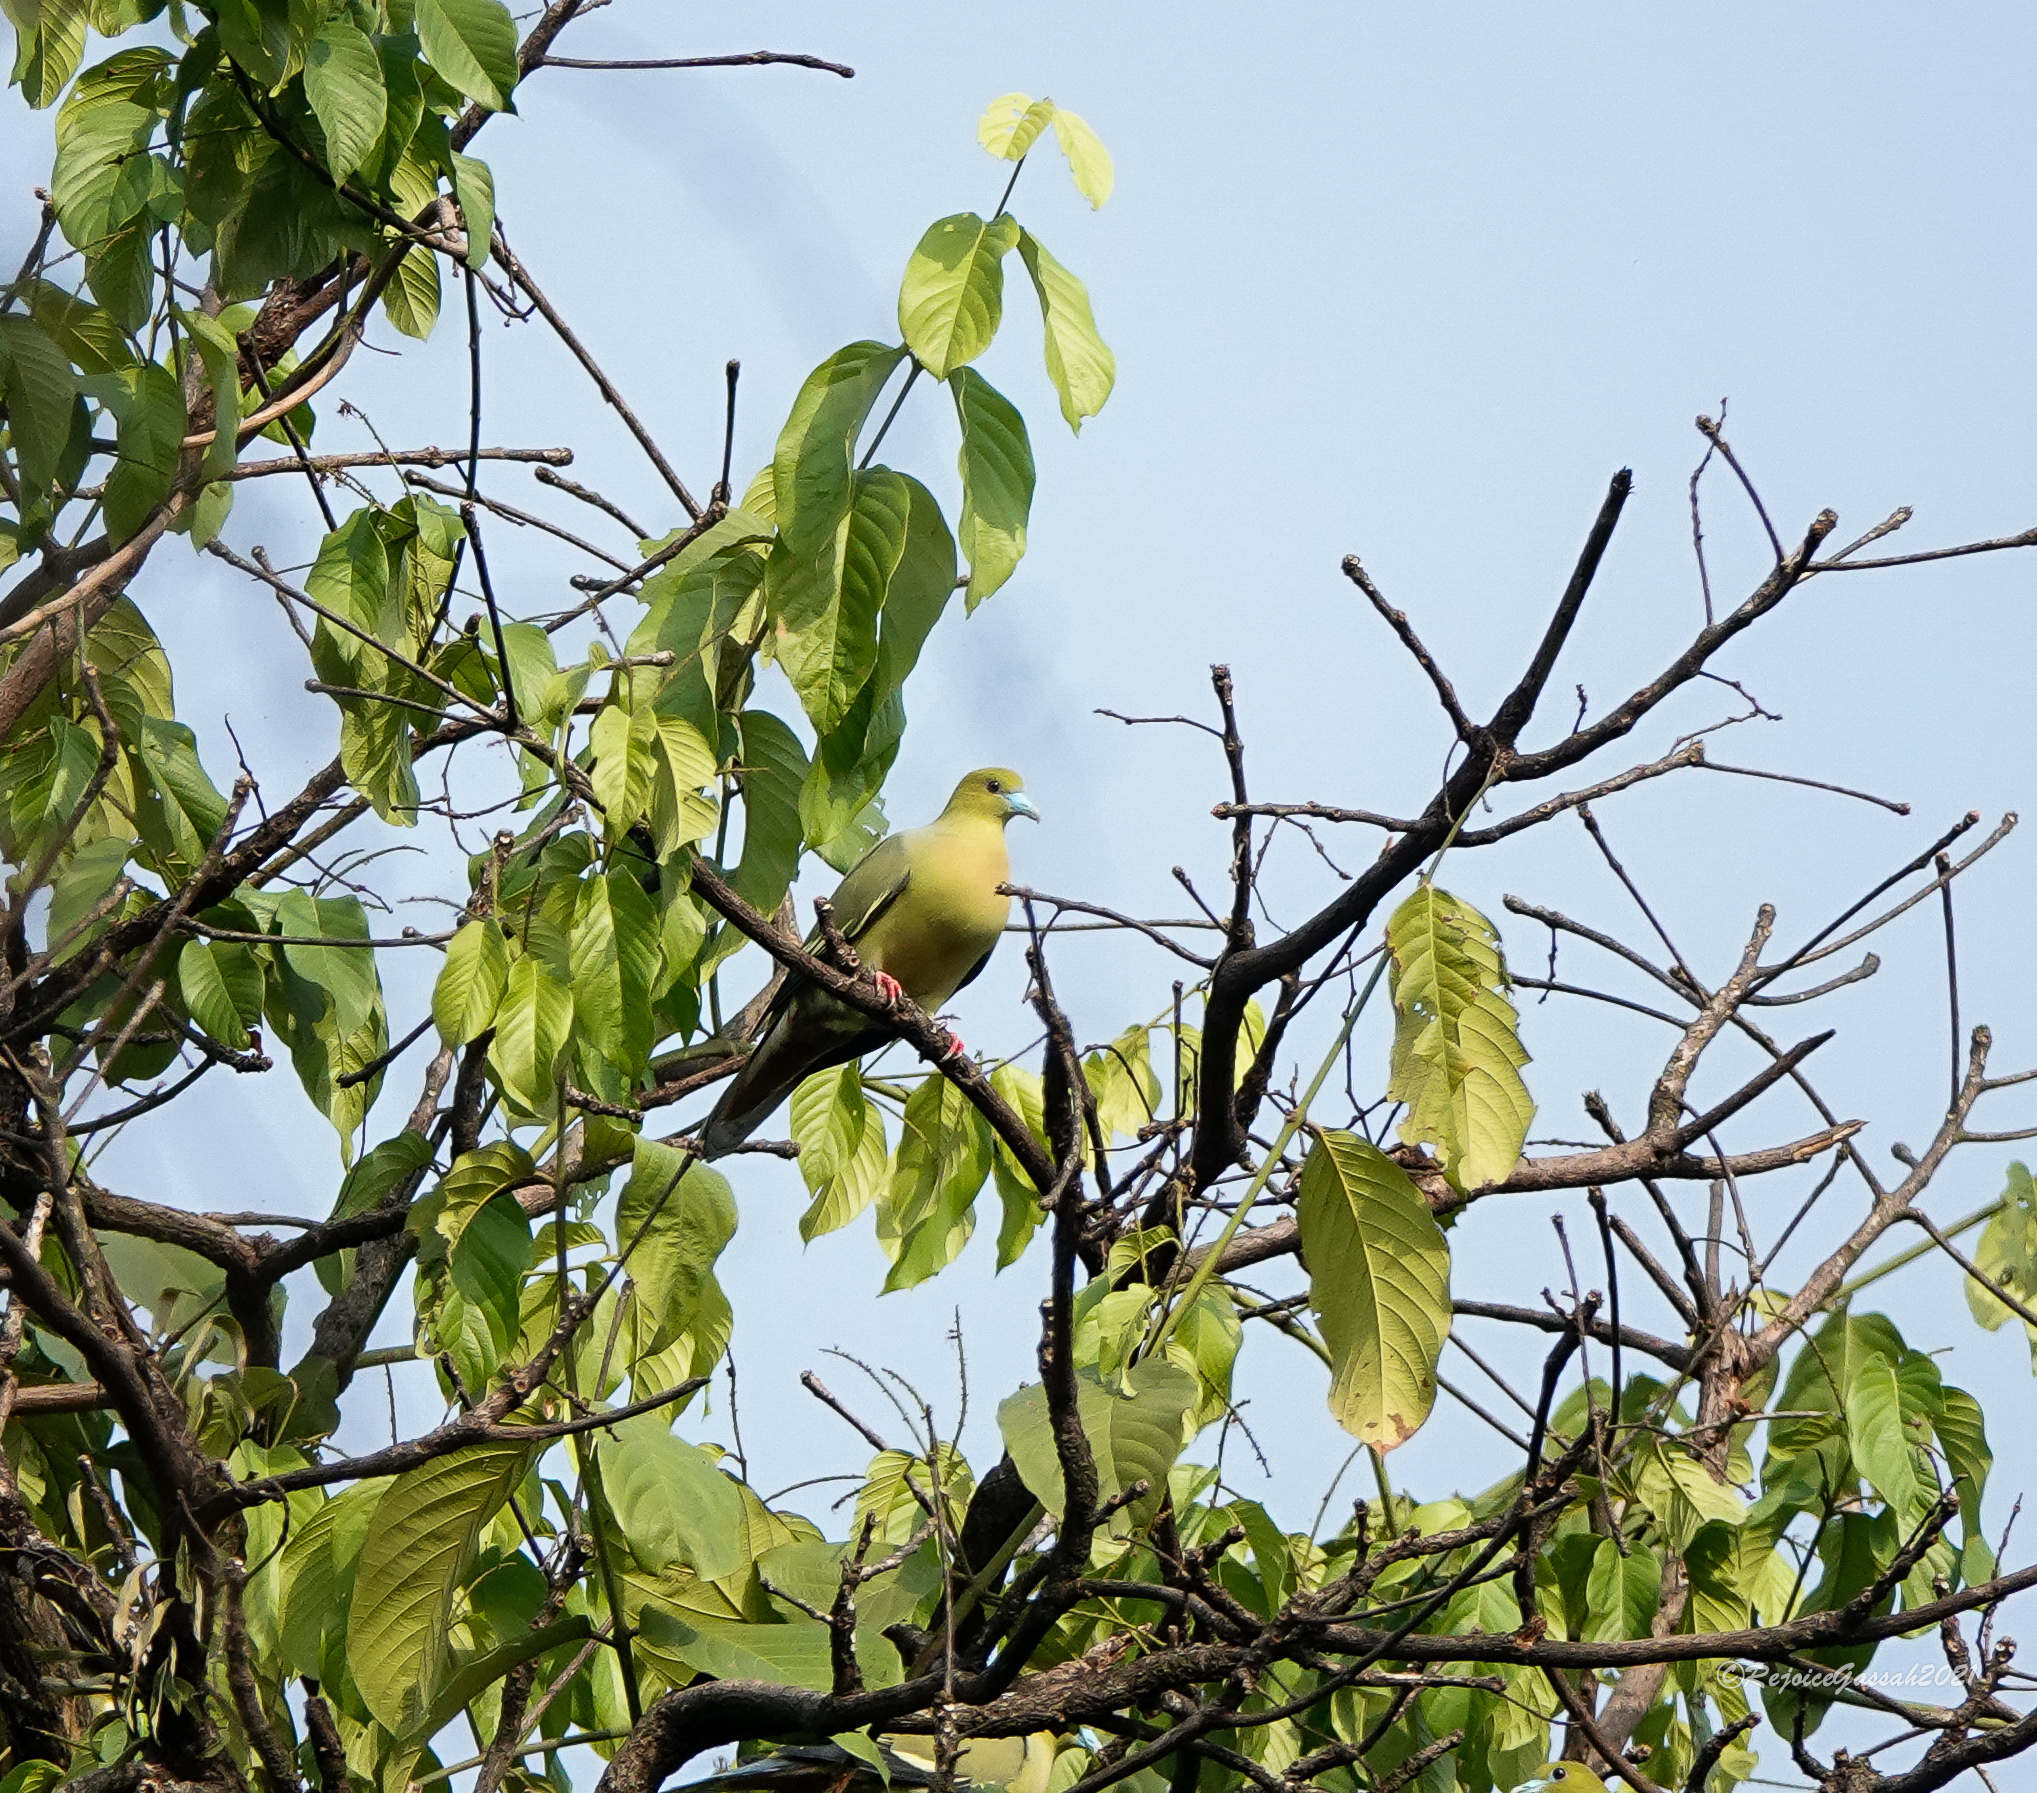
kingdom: Animalia
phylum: Chordata
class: Aves
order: Columbiformes
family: Columbidae
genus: Treron
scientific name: Treron apicauda
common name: Pin-tailed green pigeon
